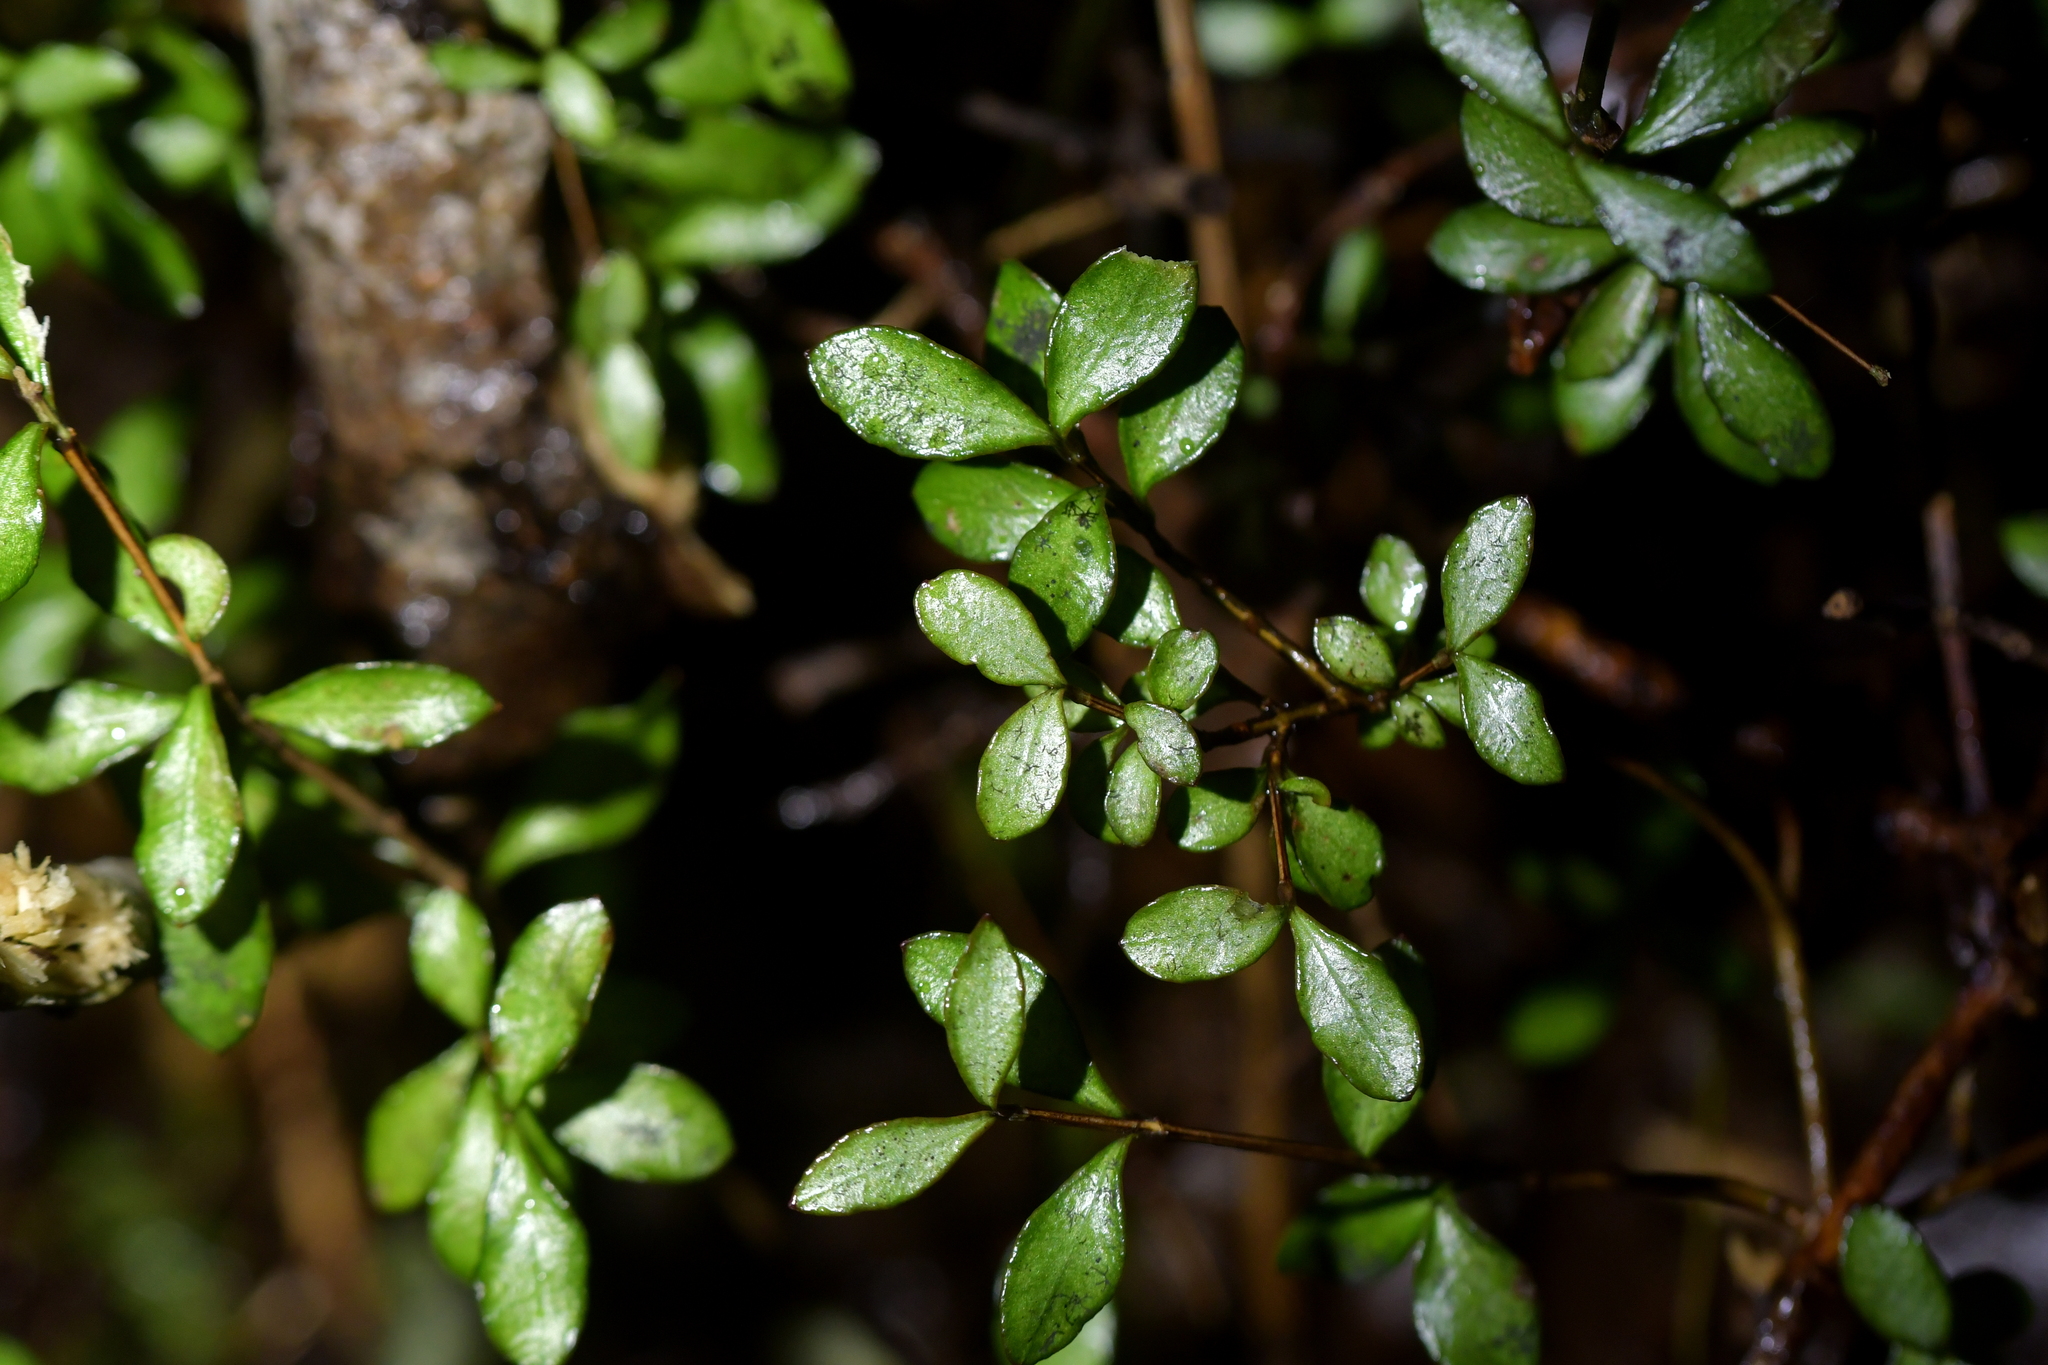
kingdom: Plantae
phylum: Tracheophyta
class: Magnoliopsida
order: Myrtales
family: Myrtaceae
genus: Neomyrtus
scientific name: Neomyrtus pedunculata
